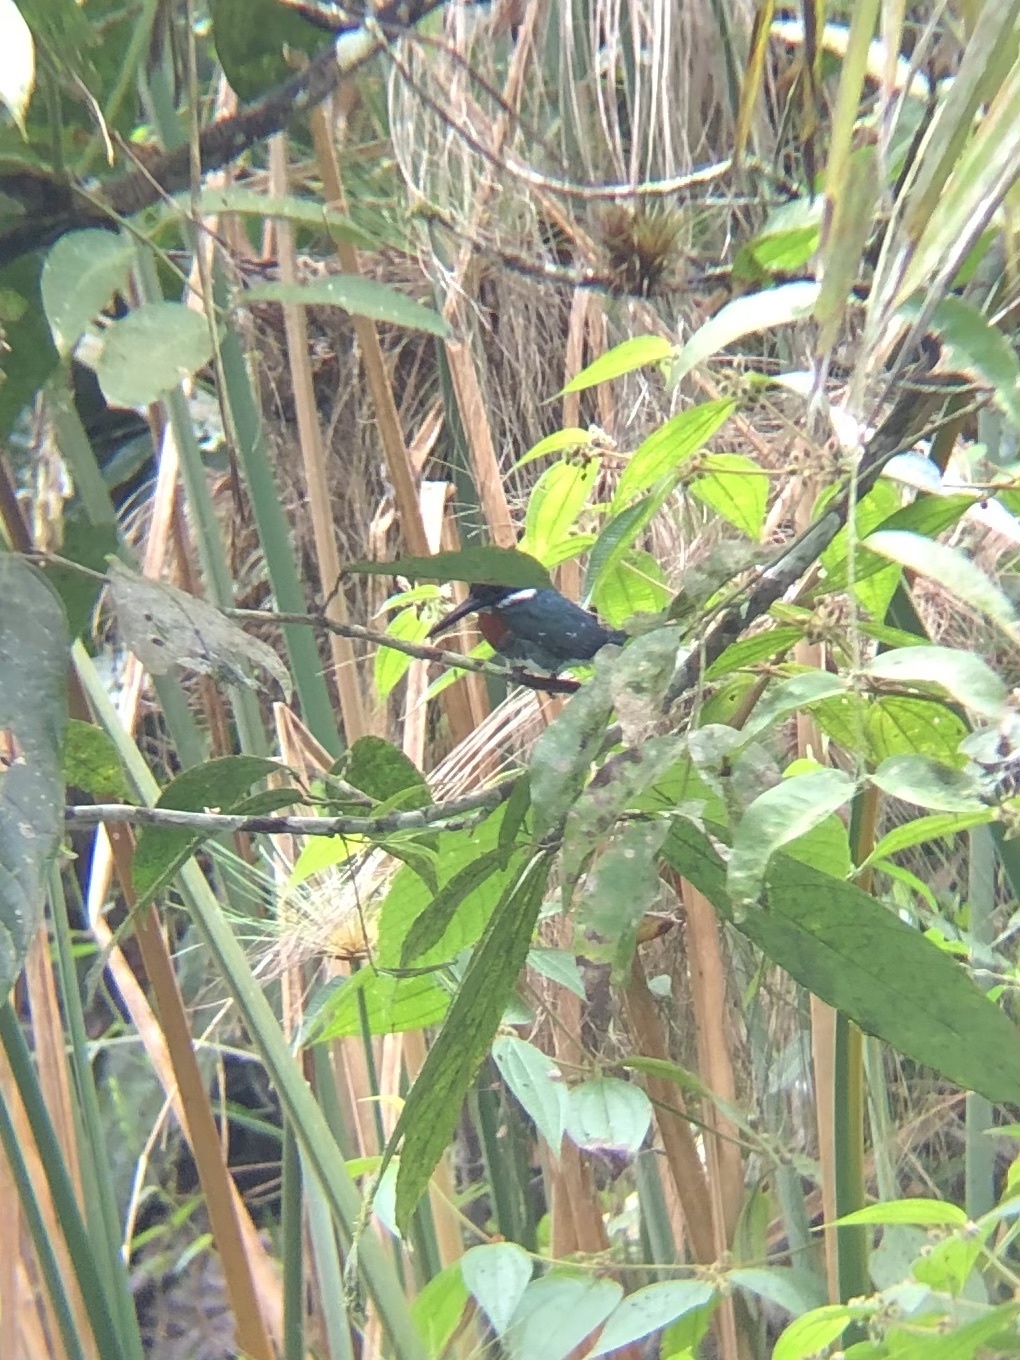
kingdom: Animalia
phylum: Chordata
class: Aves
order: Coraciiformes
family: Alcedinidae
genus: Chloroceryle
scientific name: Chloroceryle americana
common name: Green kingfisher
